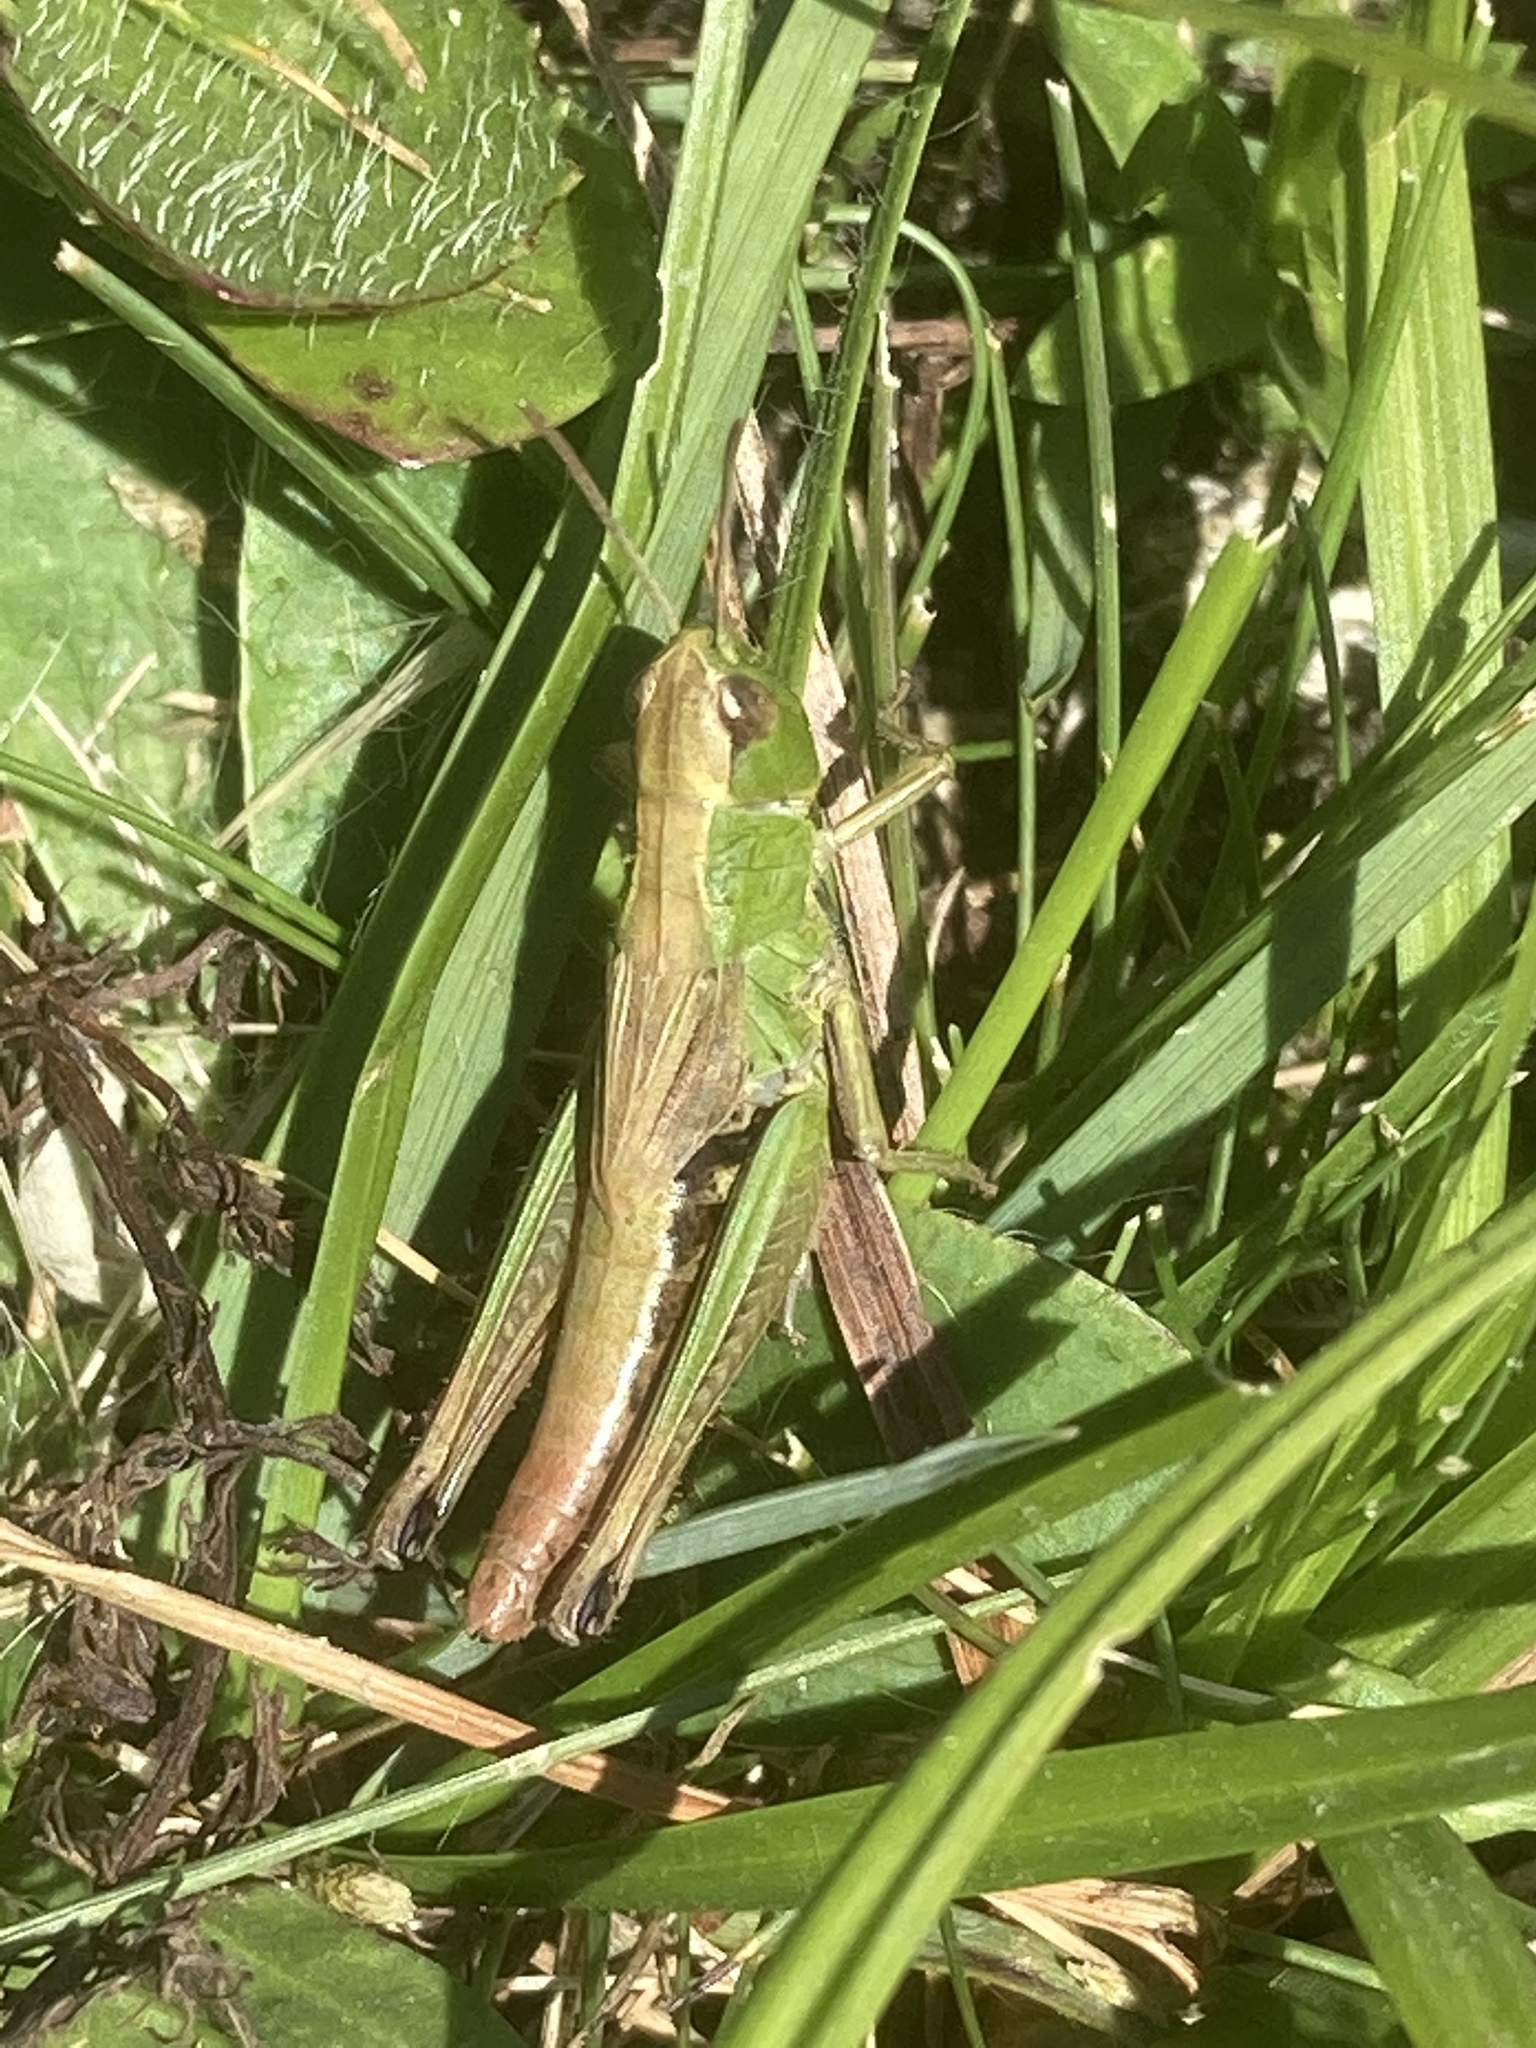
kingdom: Animalia
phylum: Arthropoda
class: Insecta
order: Orthoptera
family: Acrididae
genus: Pseudochorthippus
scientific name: Pseudochorthippus parallelus
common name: Meadow grasshopper
